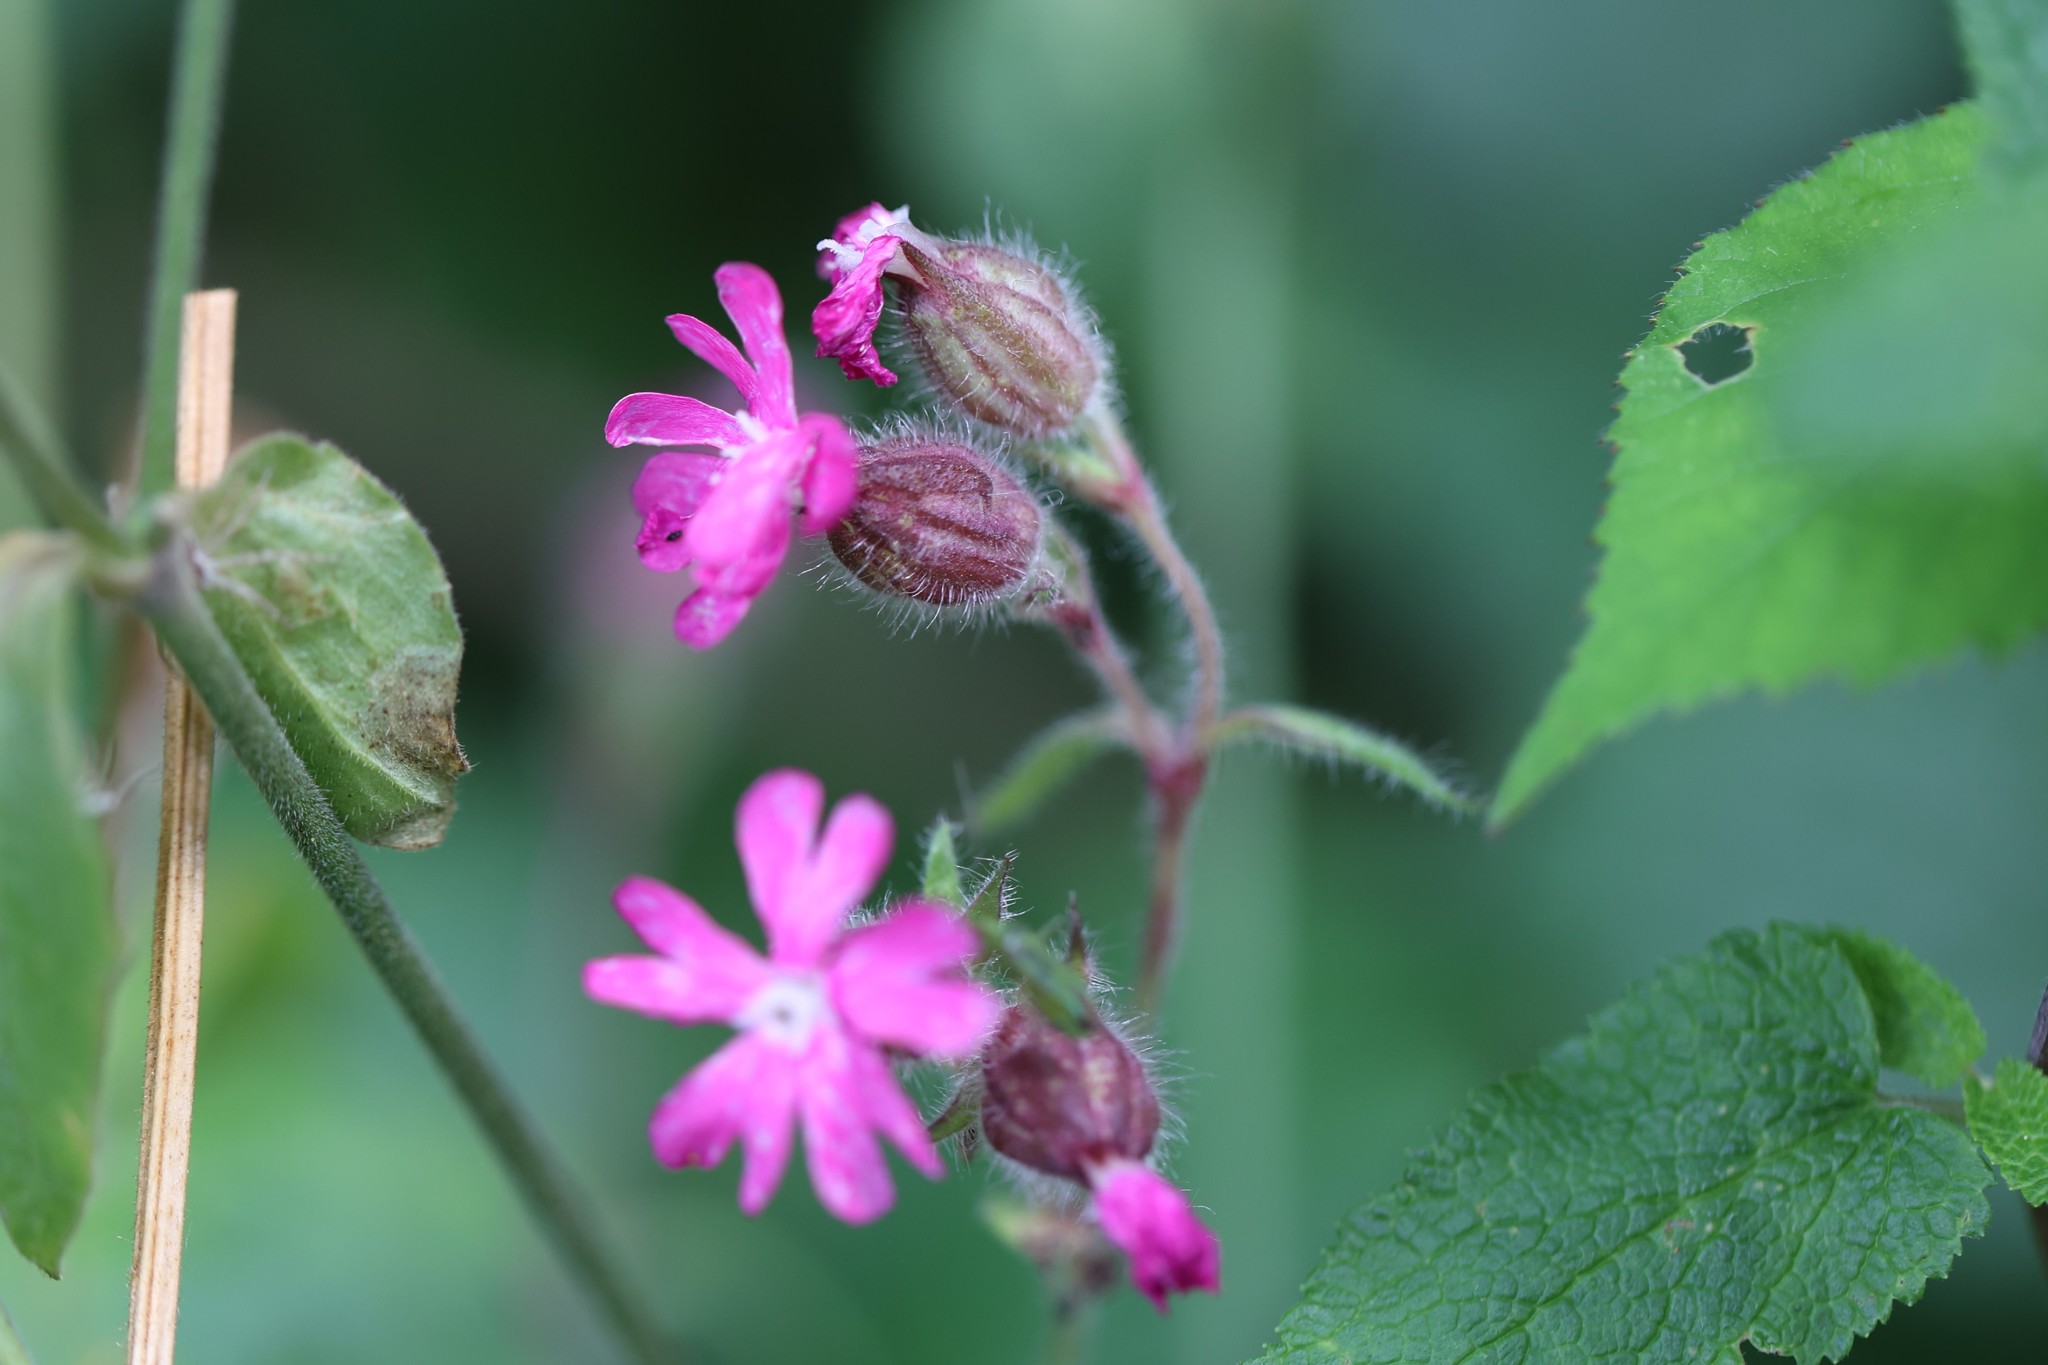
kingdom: Plantae
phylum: Tracheophyta
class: Magnoliopsida
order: Caryophyllales
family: Caryophyllaceae
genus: Silene
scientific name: Silene dioica
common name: Red campion
